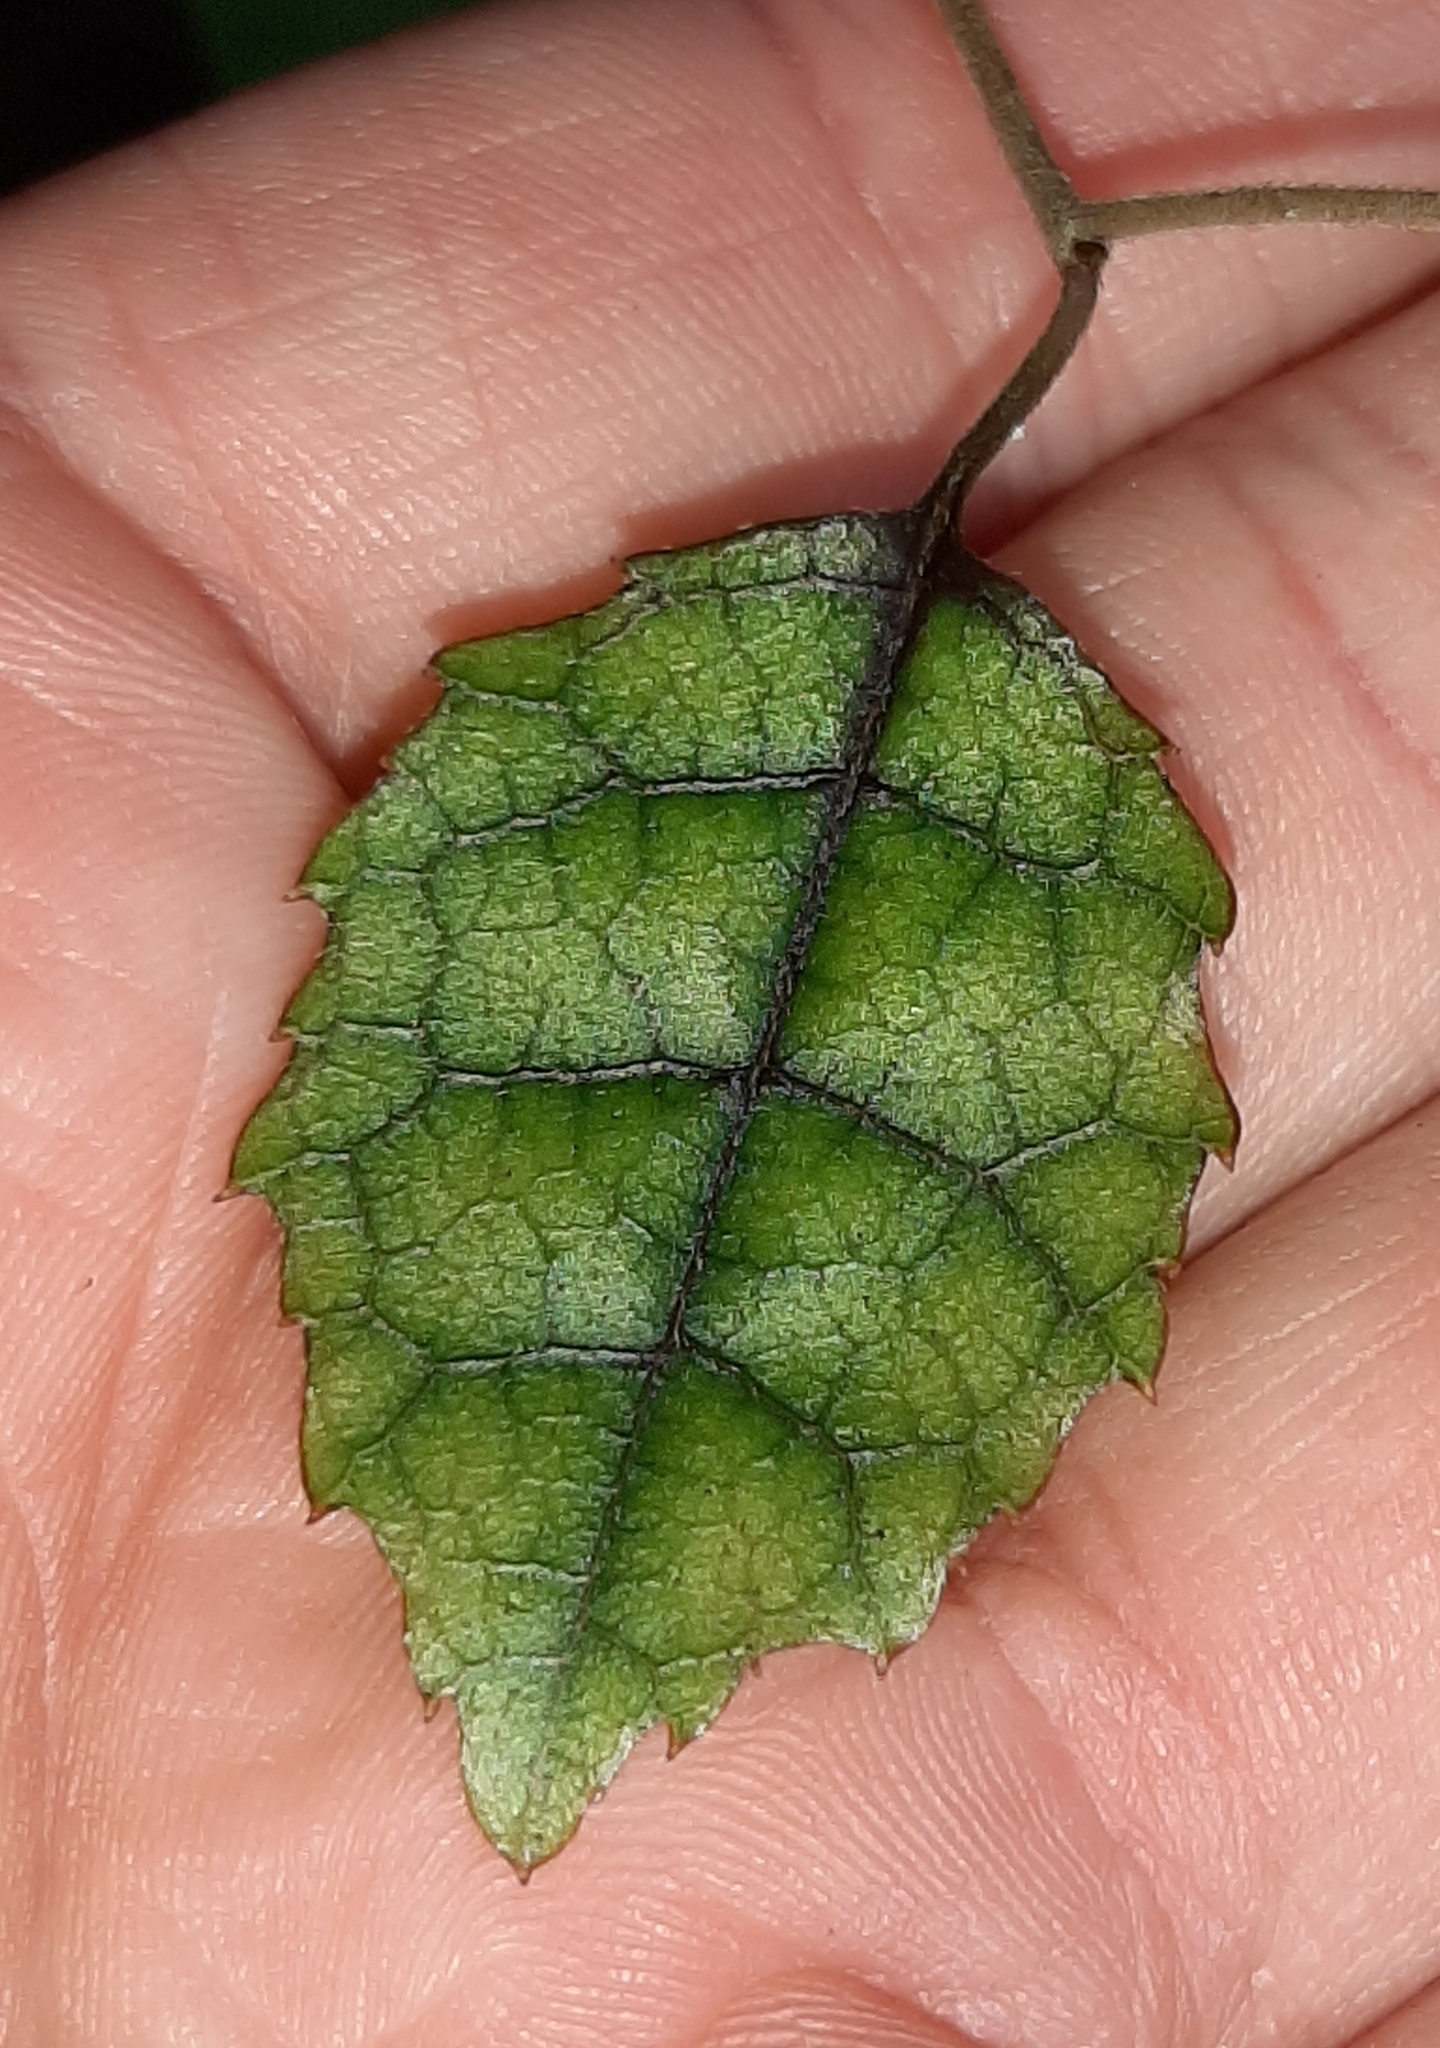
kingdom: Plantae
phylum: Tracheophyta
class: Magnoliopsida
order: Asterales
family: Rousseaceae
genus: Carpodetus
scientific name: Carpodetus serratus
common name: White mapau
